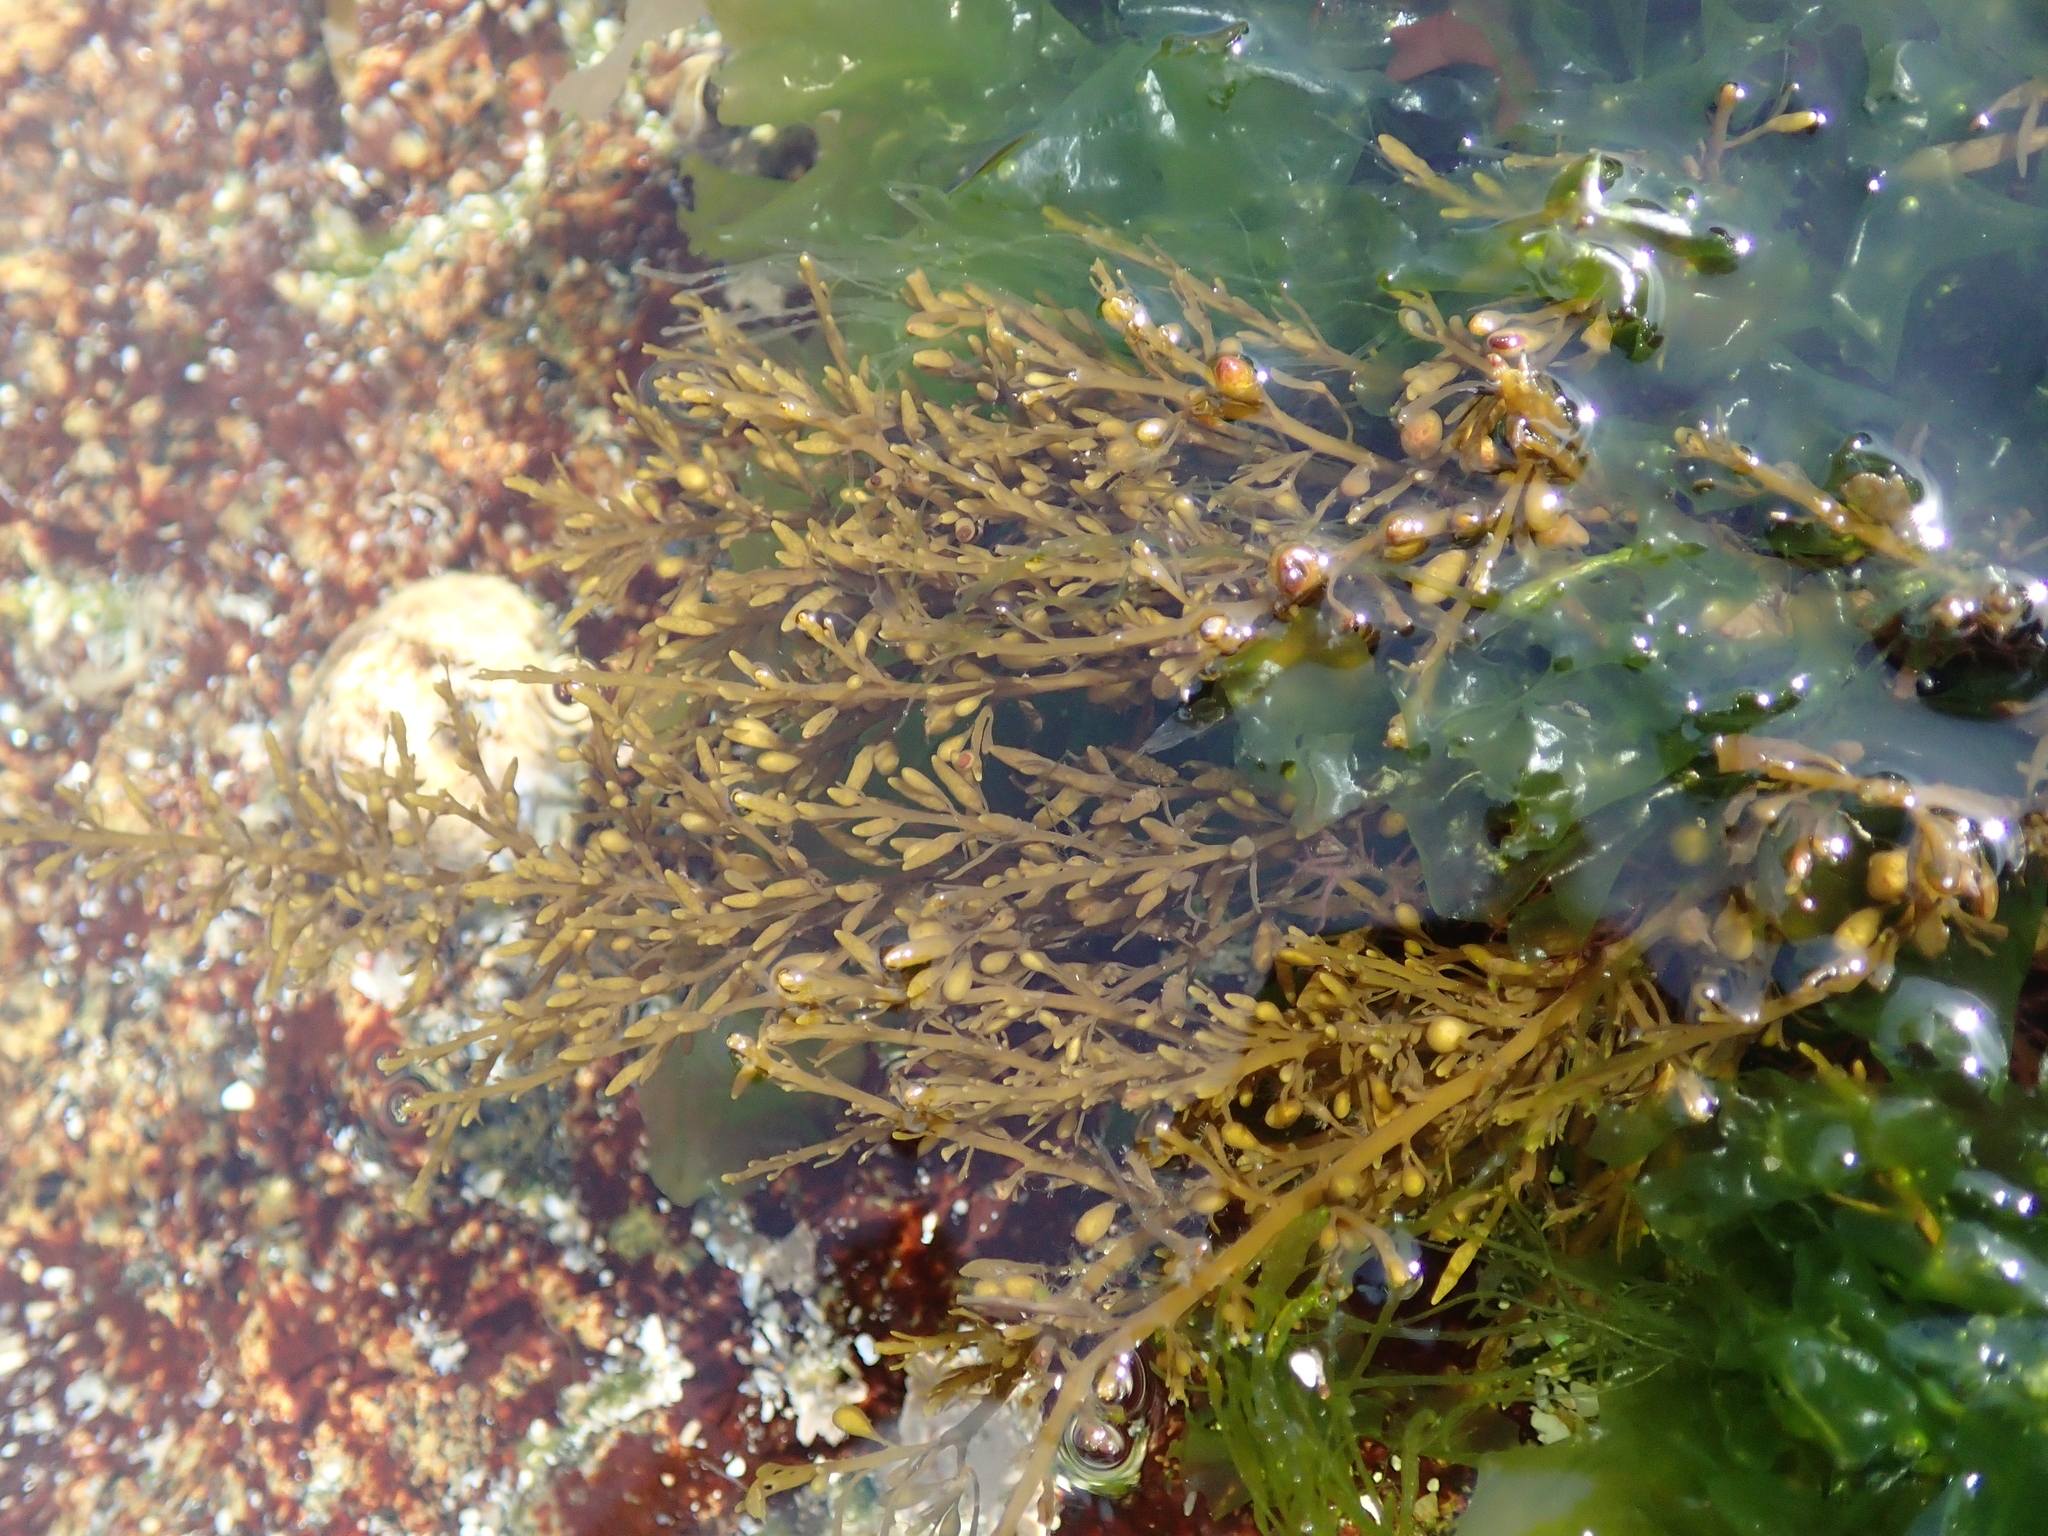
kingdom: Chromista
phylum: Ochrophyta
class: Phaeophyceae
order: Fucales
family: Sargassaceae
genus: Sargassum
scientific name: Sargassum muticum
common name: Japweed
